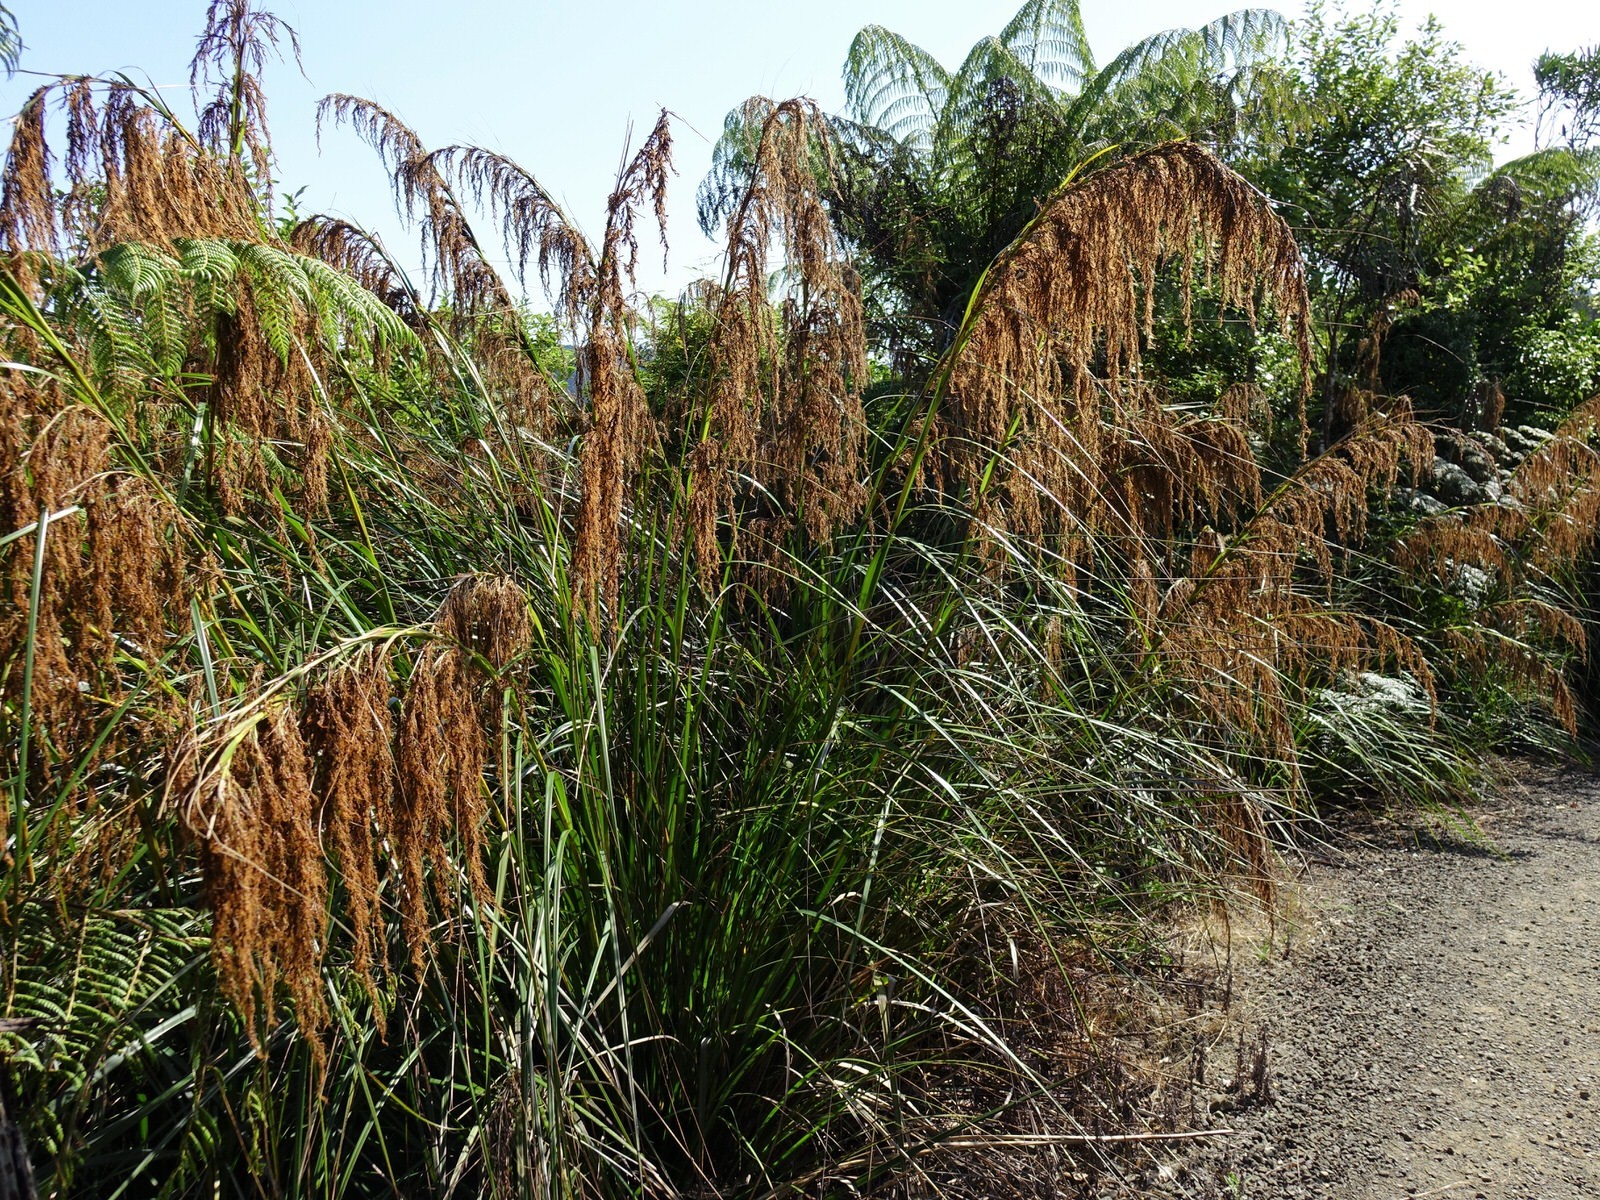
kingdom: Plantae
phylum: Tracheophyta
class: Liliopsida
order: Poales
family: Cyperaceae
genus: Gahnia
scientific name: Gahnia xanthocarpa
